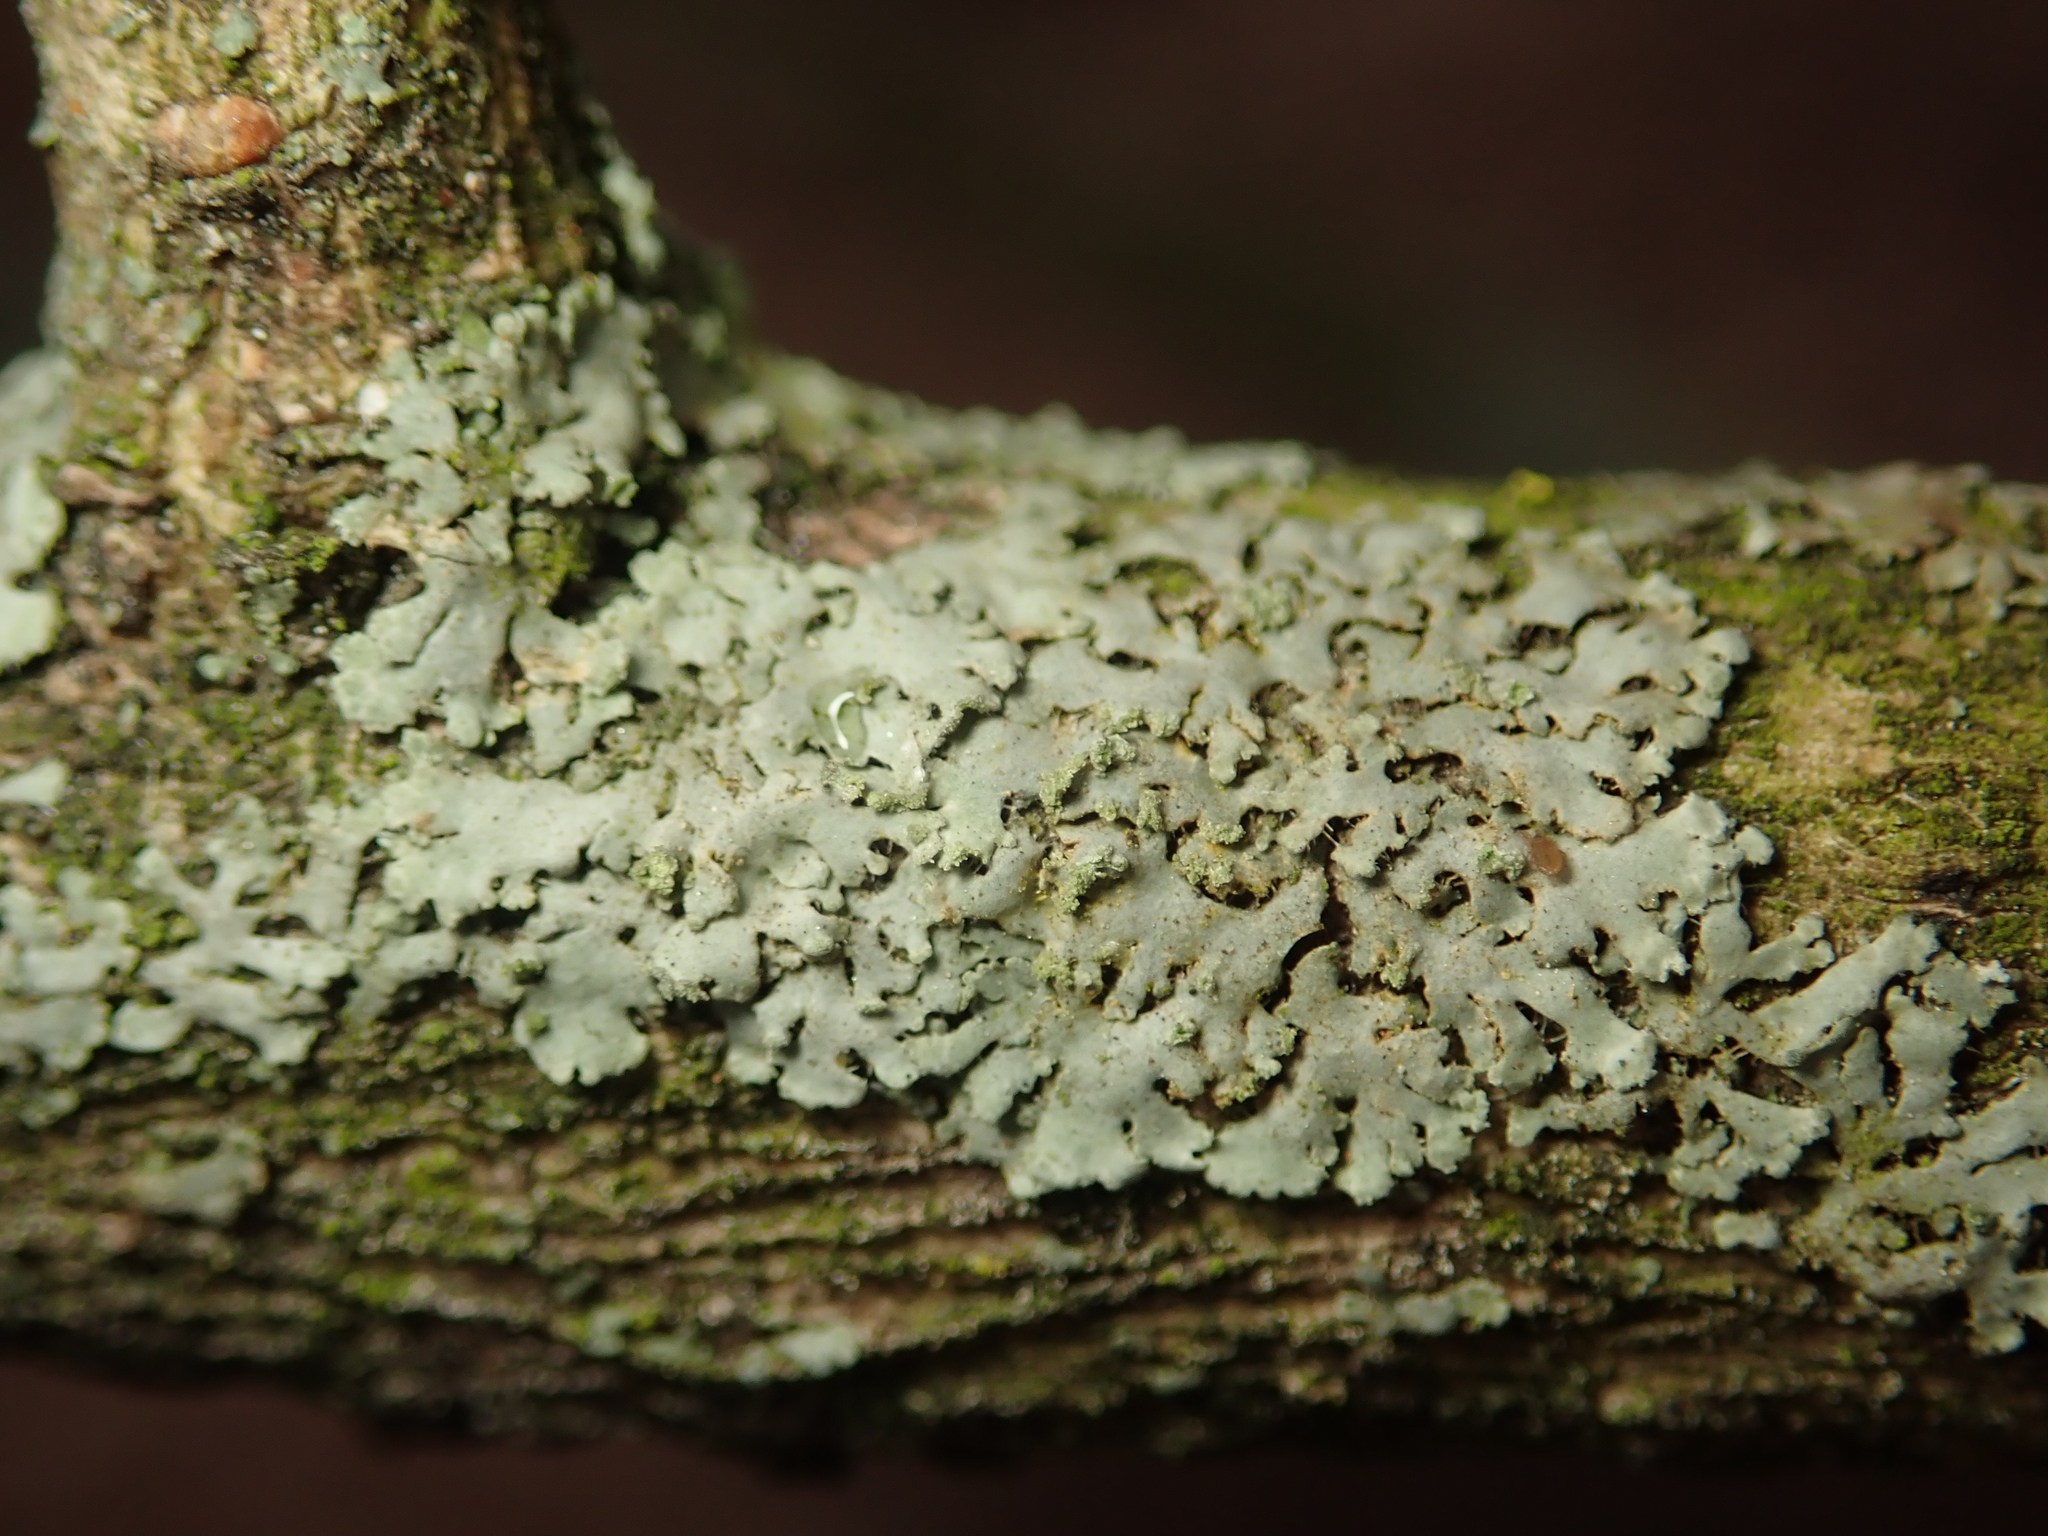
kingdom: Fungi
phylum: Ascomycota
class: Lecanoromycetes
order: Caliciales
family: Physciaceae
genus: Phaeophyscia
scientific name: Phaeophyscia orbicularis
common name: Mealy shadow lichen
